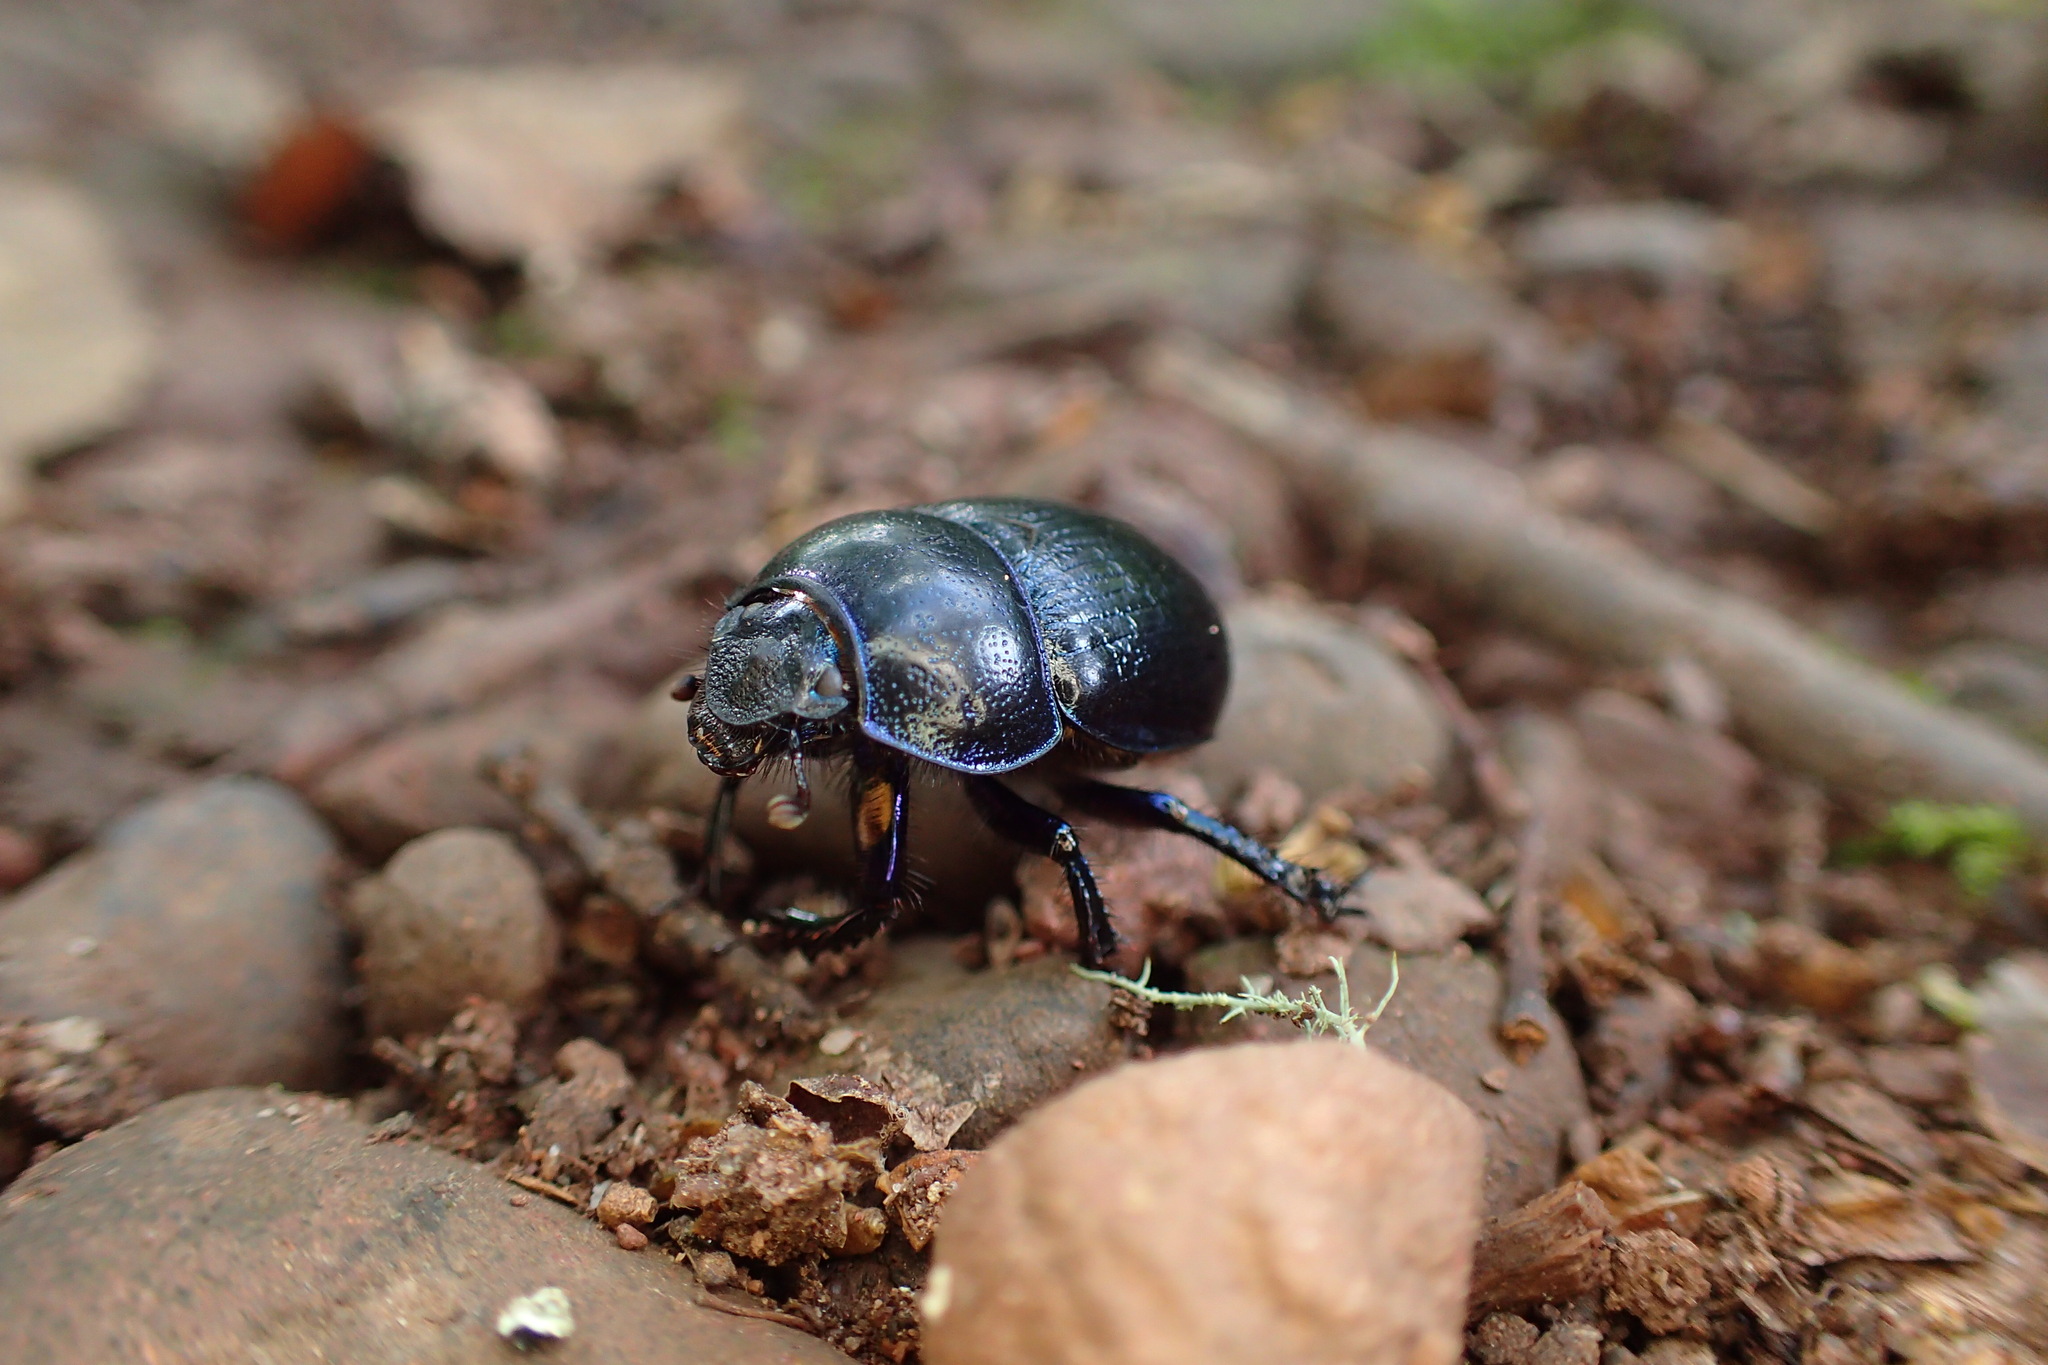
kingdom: Animalia
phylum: Arthropoda
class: Insecta
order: Coleoptera
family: Geotrupidae
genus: Anoplotrupes
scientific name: Anoplotrupes stercorosus
